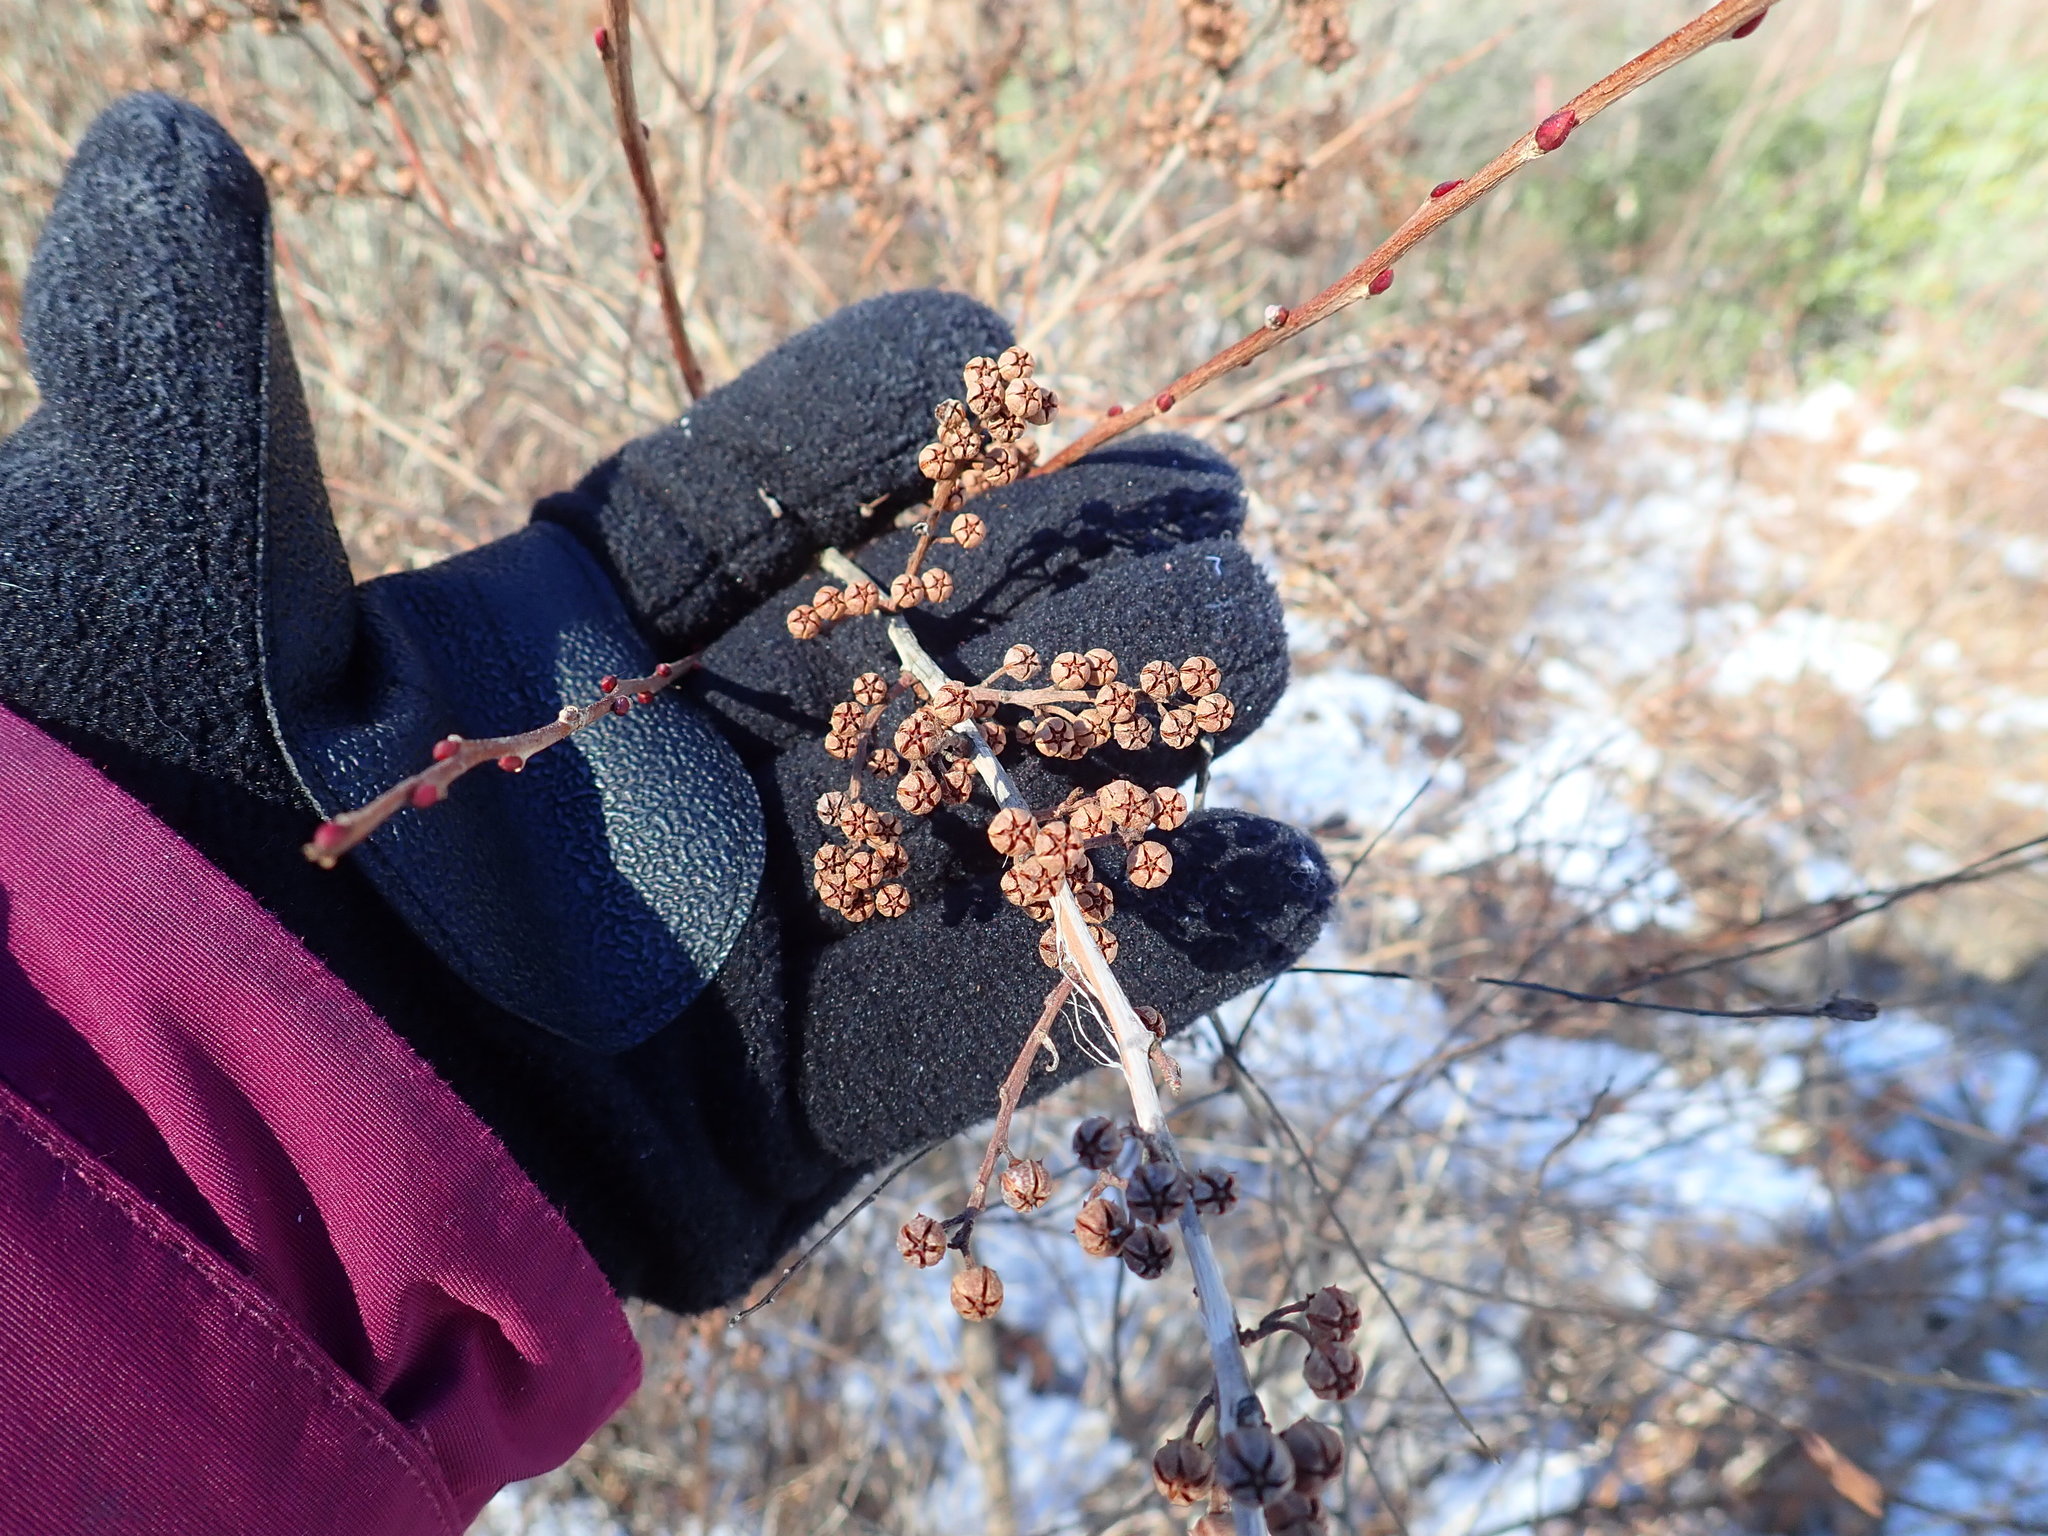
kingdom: Plantae
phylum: Tracheophyta
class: Magnoliopsida
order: Ericales
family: Ericaceae
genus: Lyonia
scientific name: Lyonia ligustrina
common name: Maleberry
